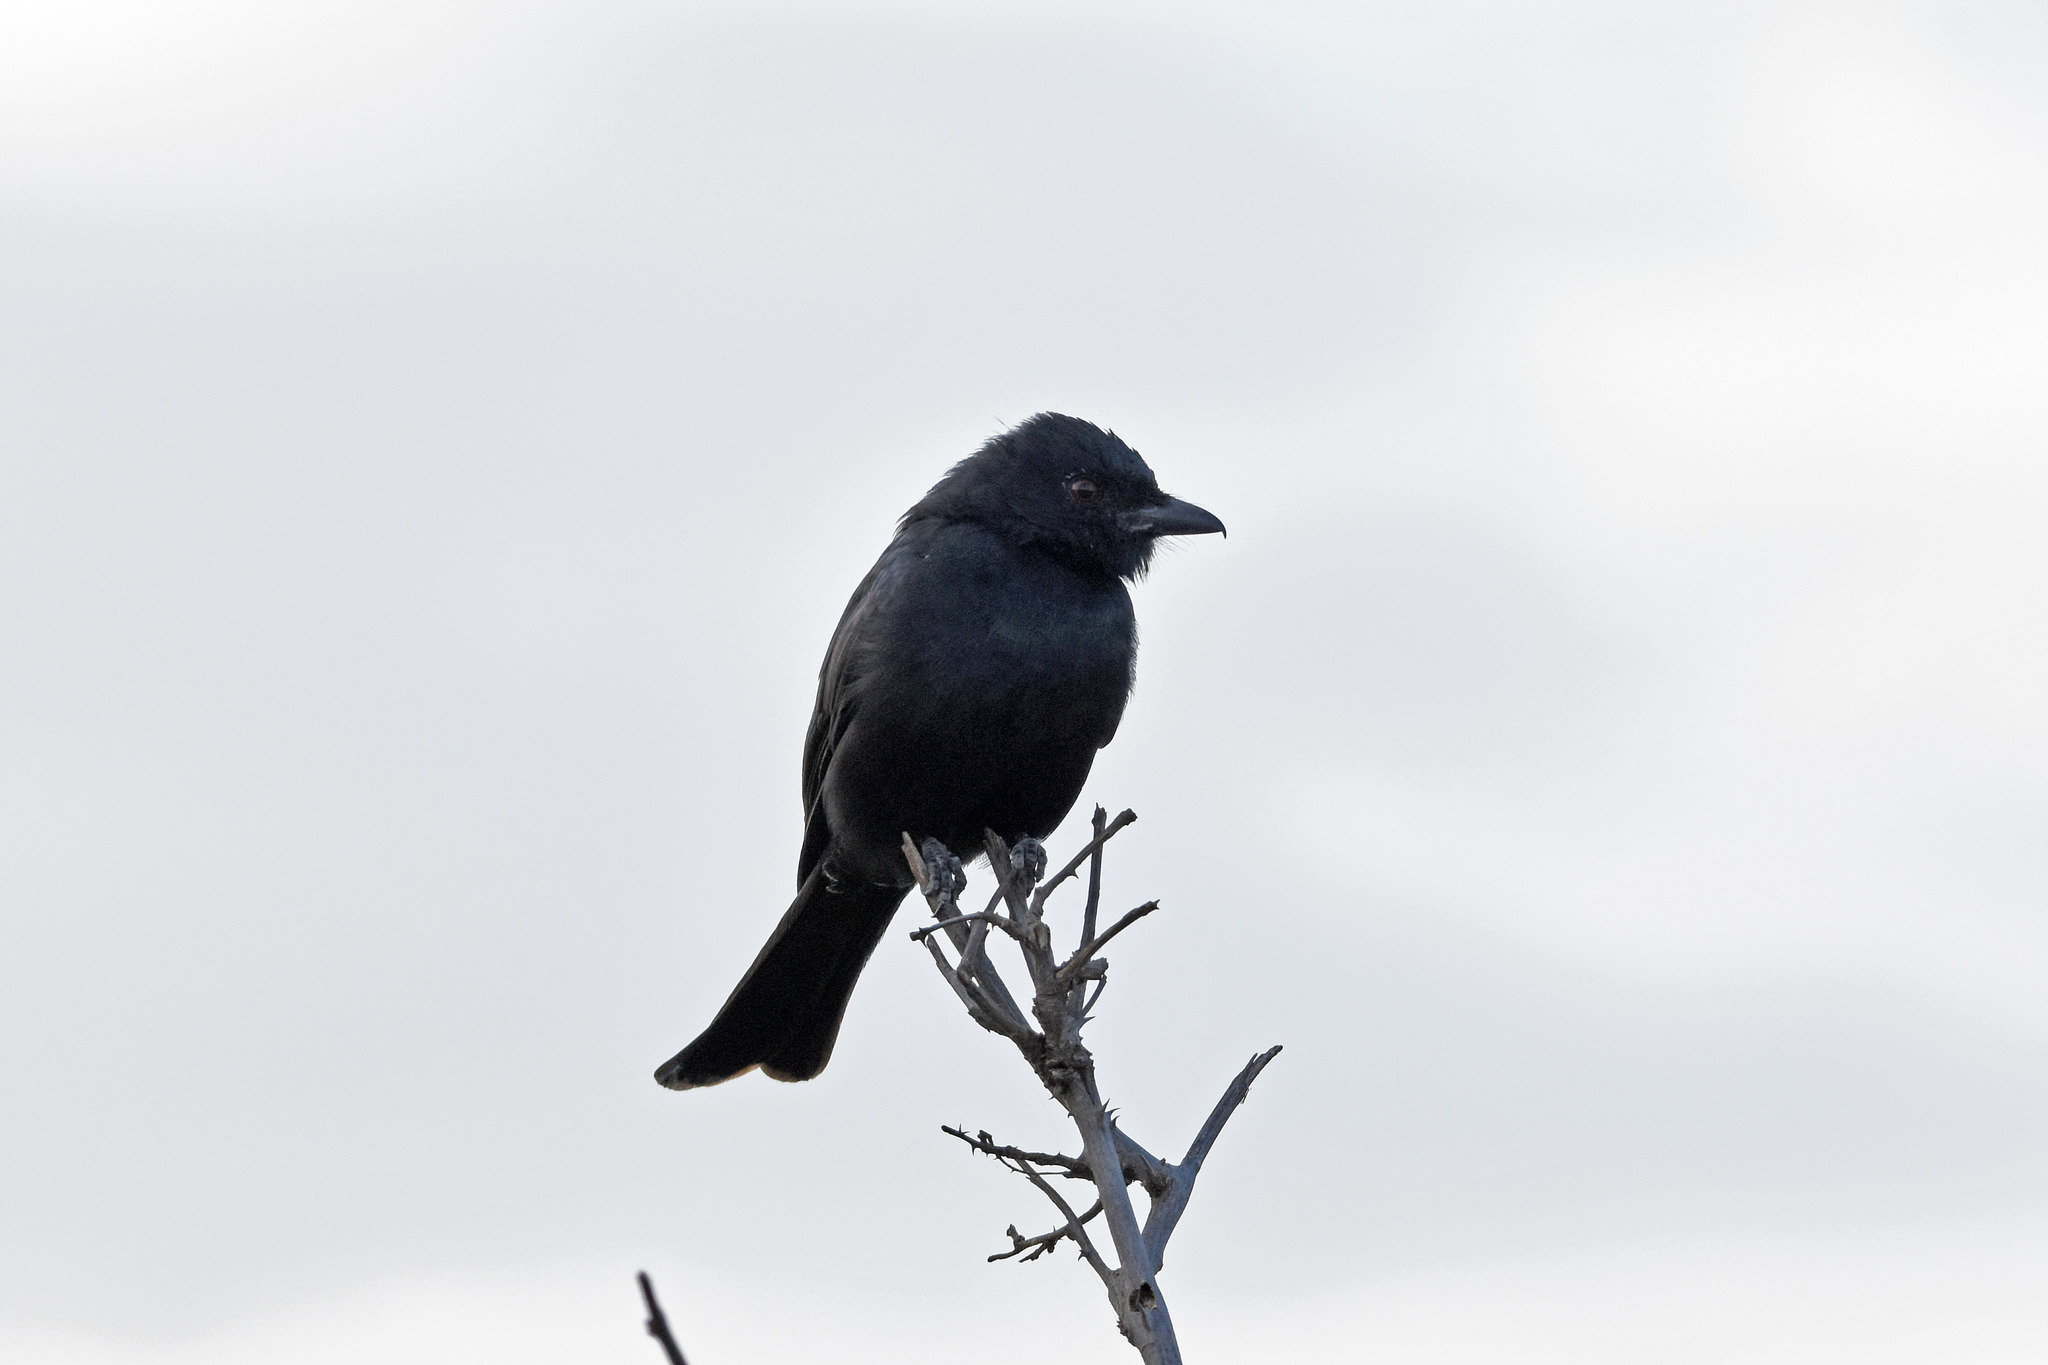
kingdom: Animalia
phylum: Chordata
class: Aves
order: Passeriformes
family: Dicruridae
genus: Dicrurus
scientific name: Dicrurus adsimilis
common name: Fork-tailed drongo
